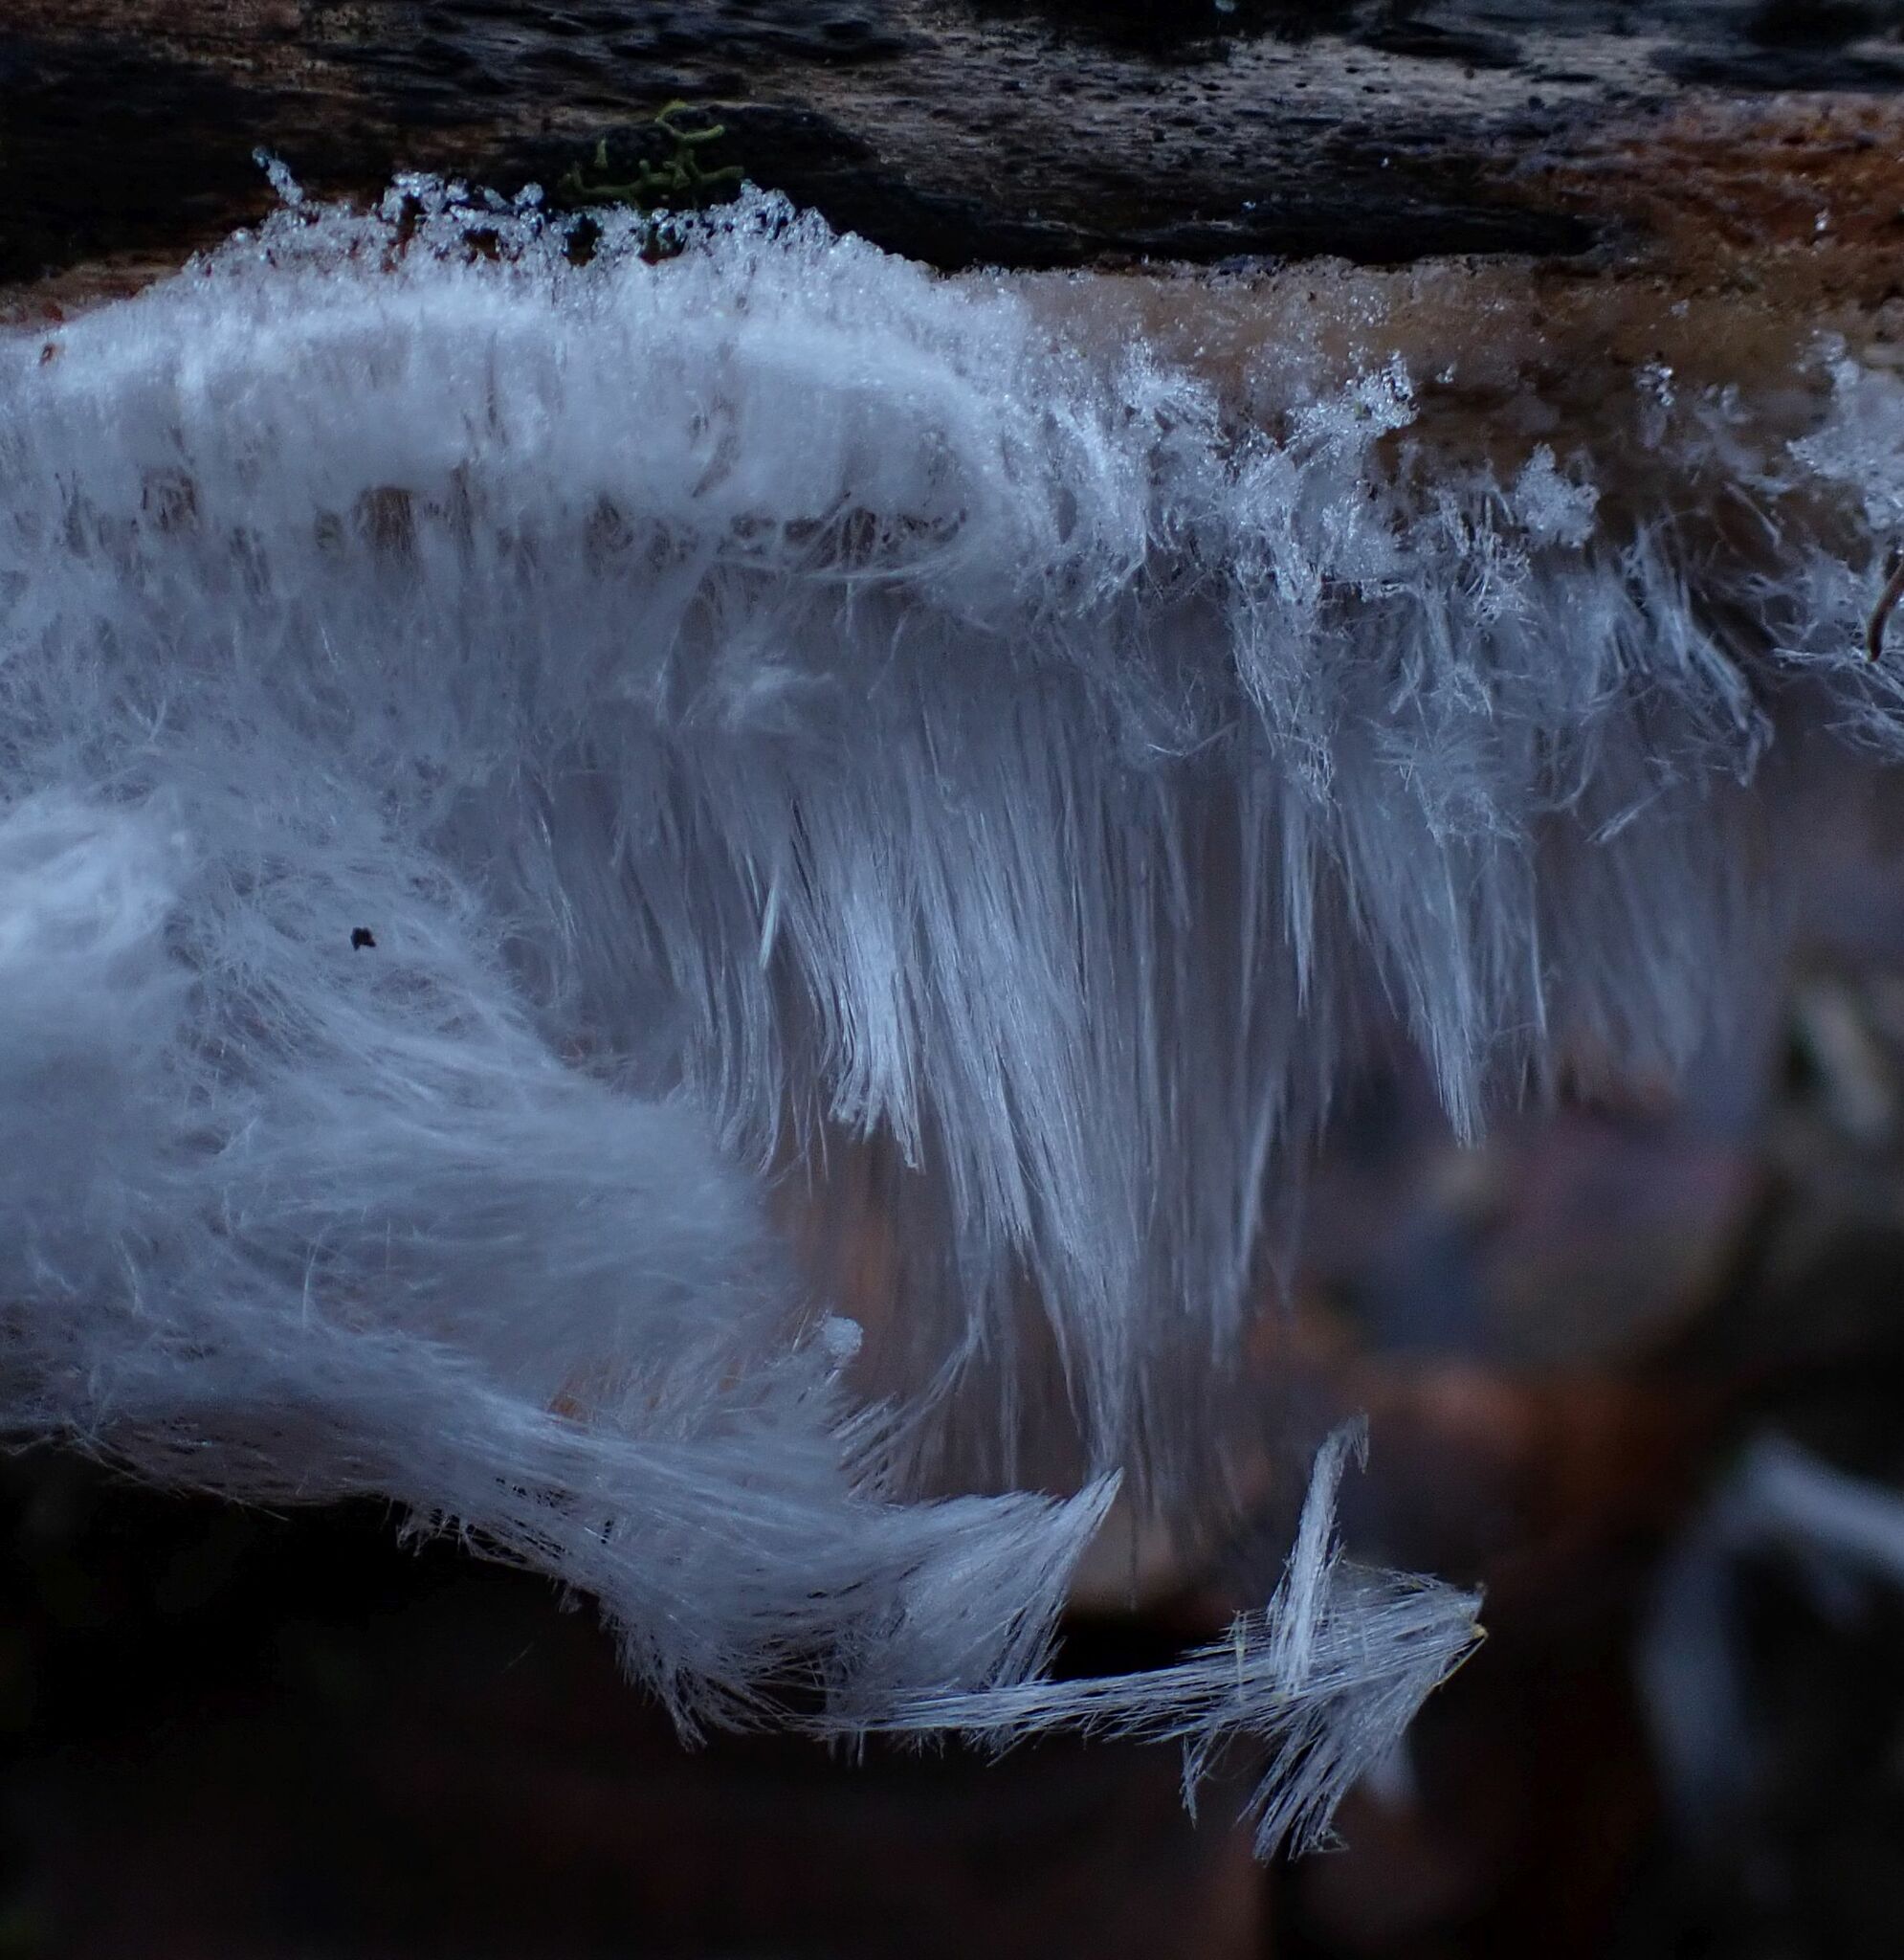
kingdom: Fungi
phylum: Basidiomycota
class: Agaricomycetes
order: Auriculariales
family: Auriculariaceae
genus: Exidiopsis
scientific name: Exidiopsis effusa
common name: Hair ice crust
